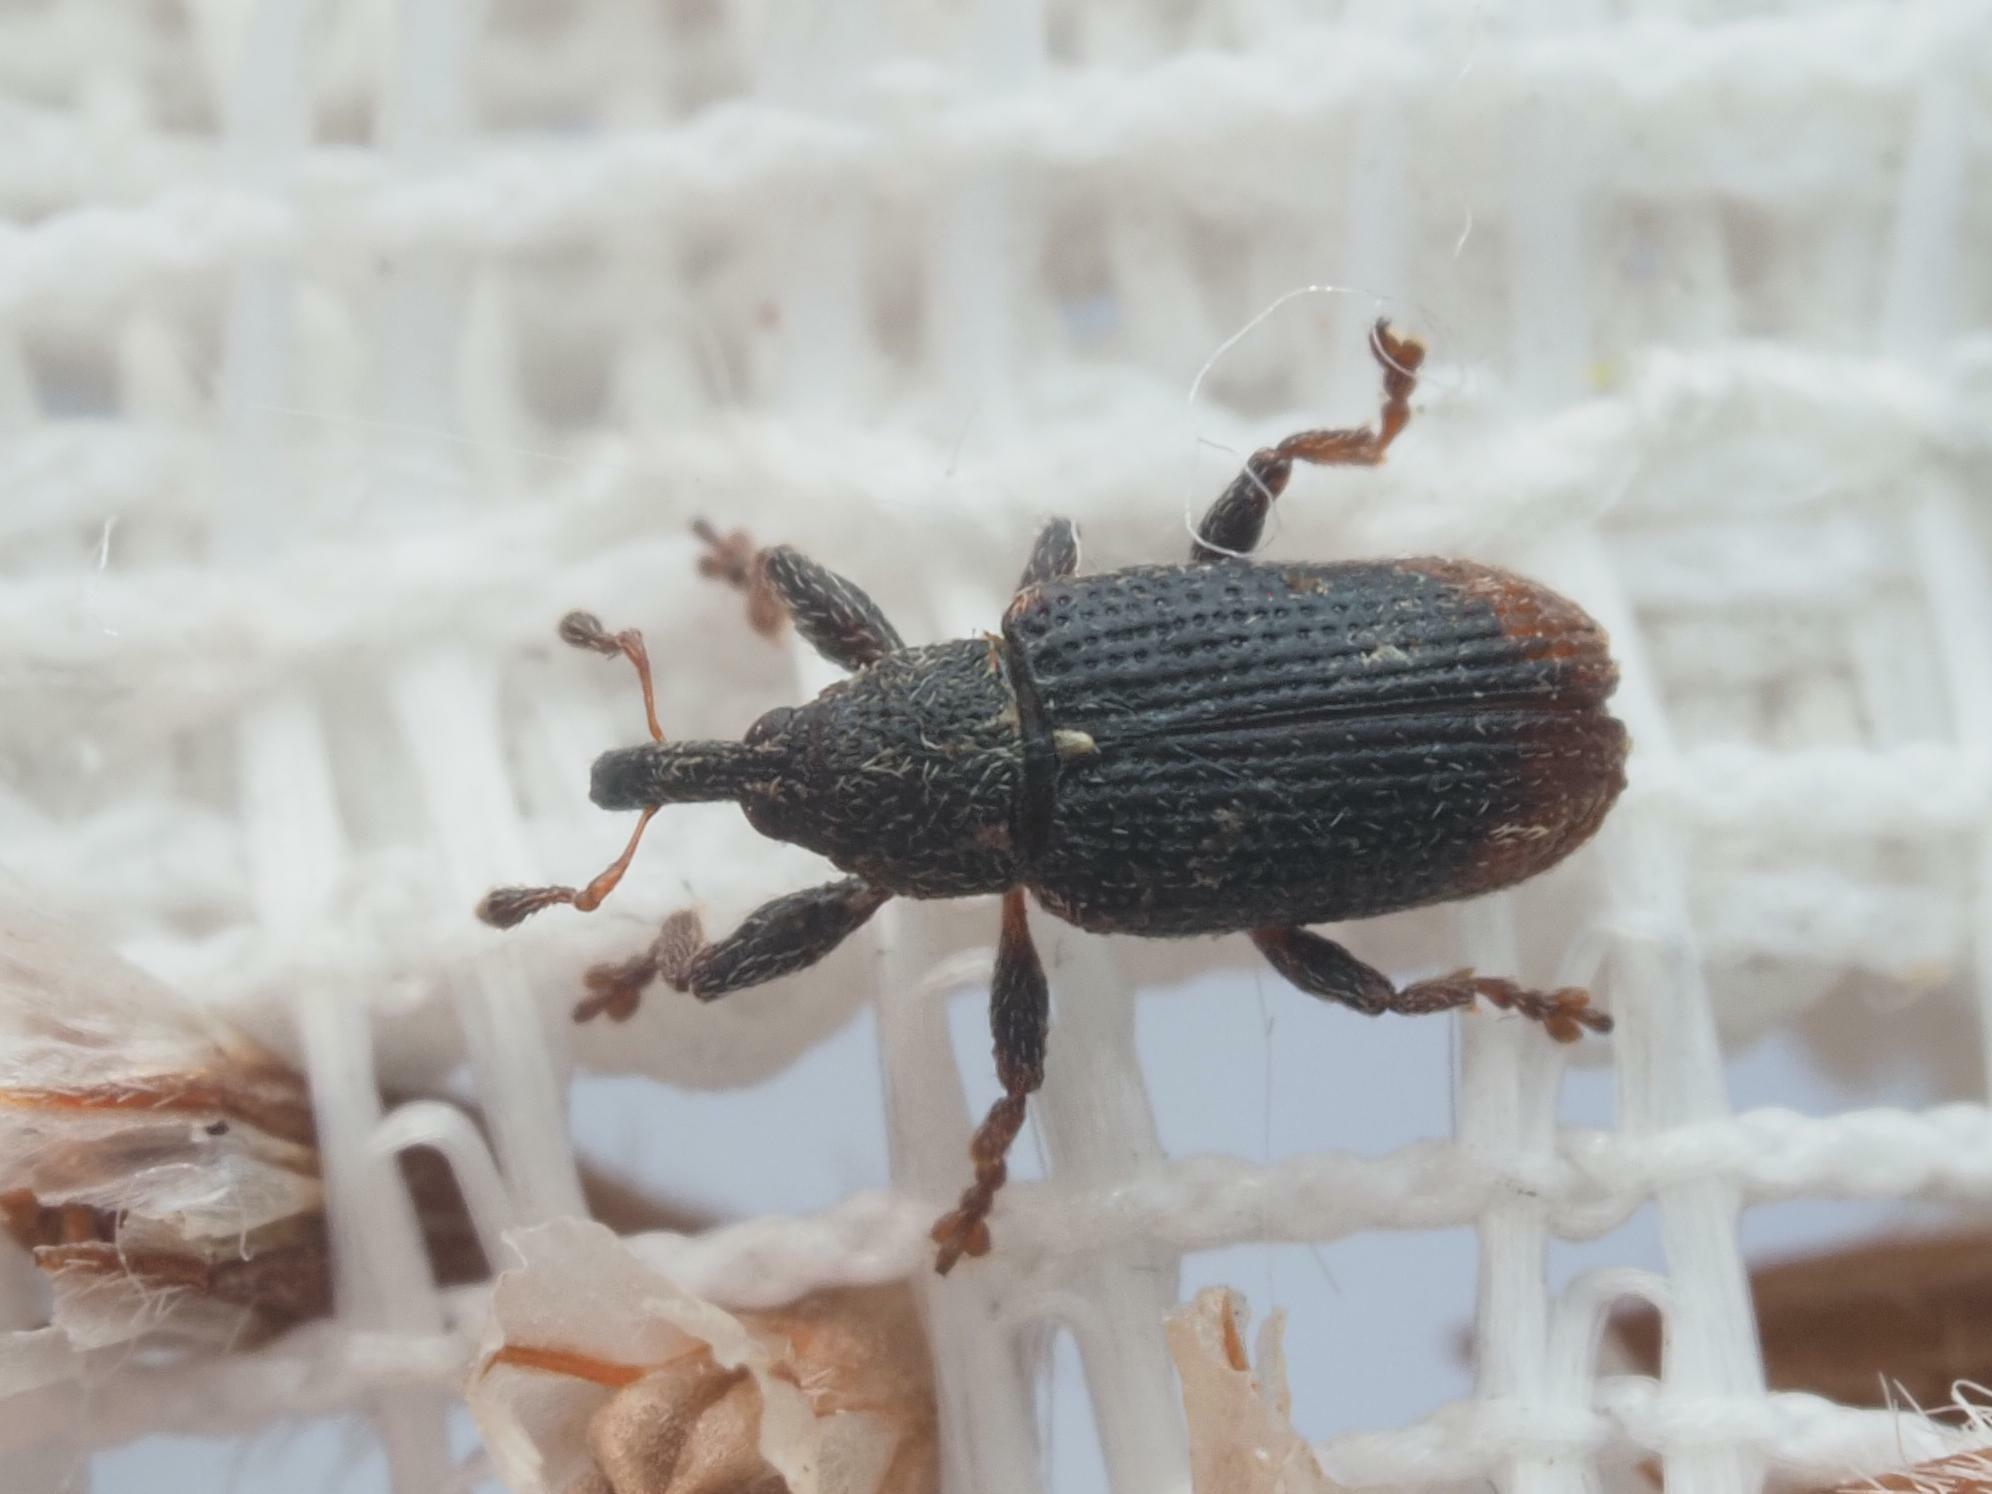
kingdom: Animalia
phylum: Arthropoda
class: Insecta
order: Coleoptera
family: Curculionidae
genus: Bradybatus
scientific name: Bradybatus kellneri
